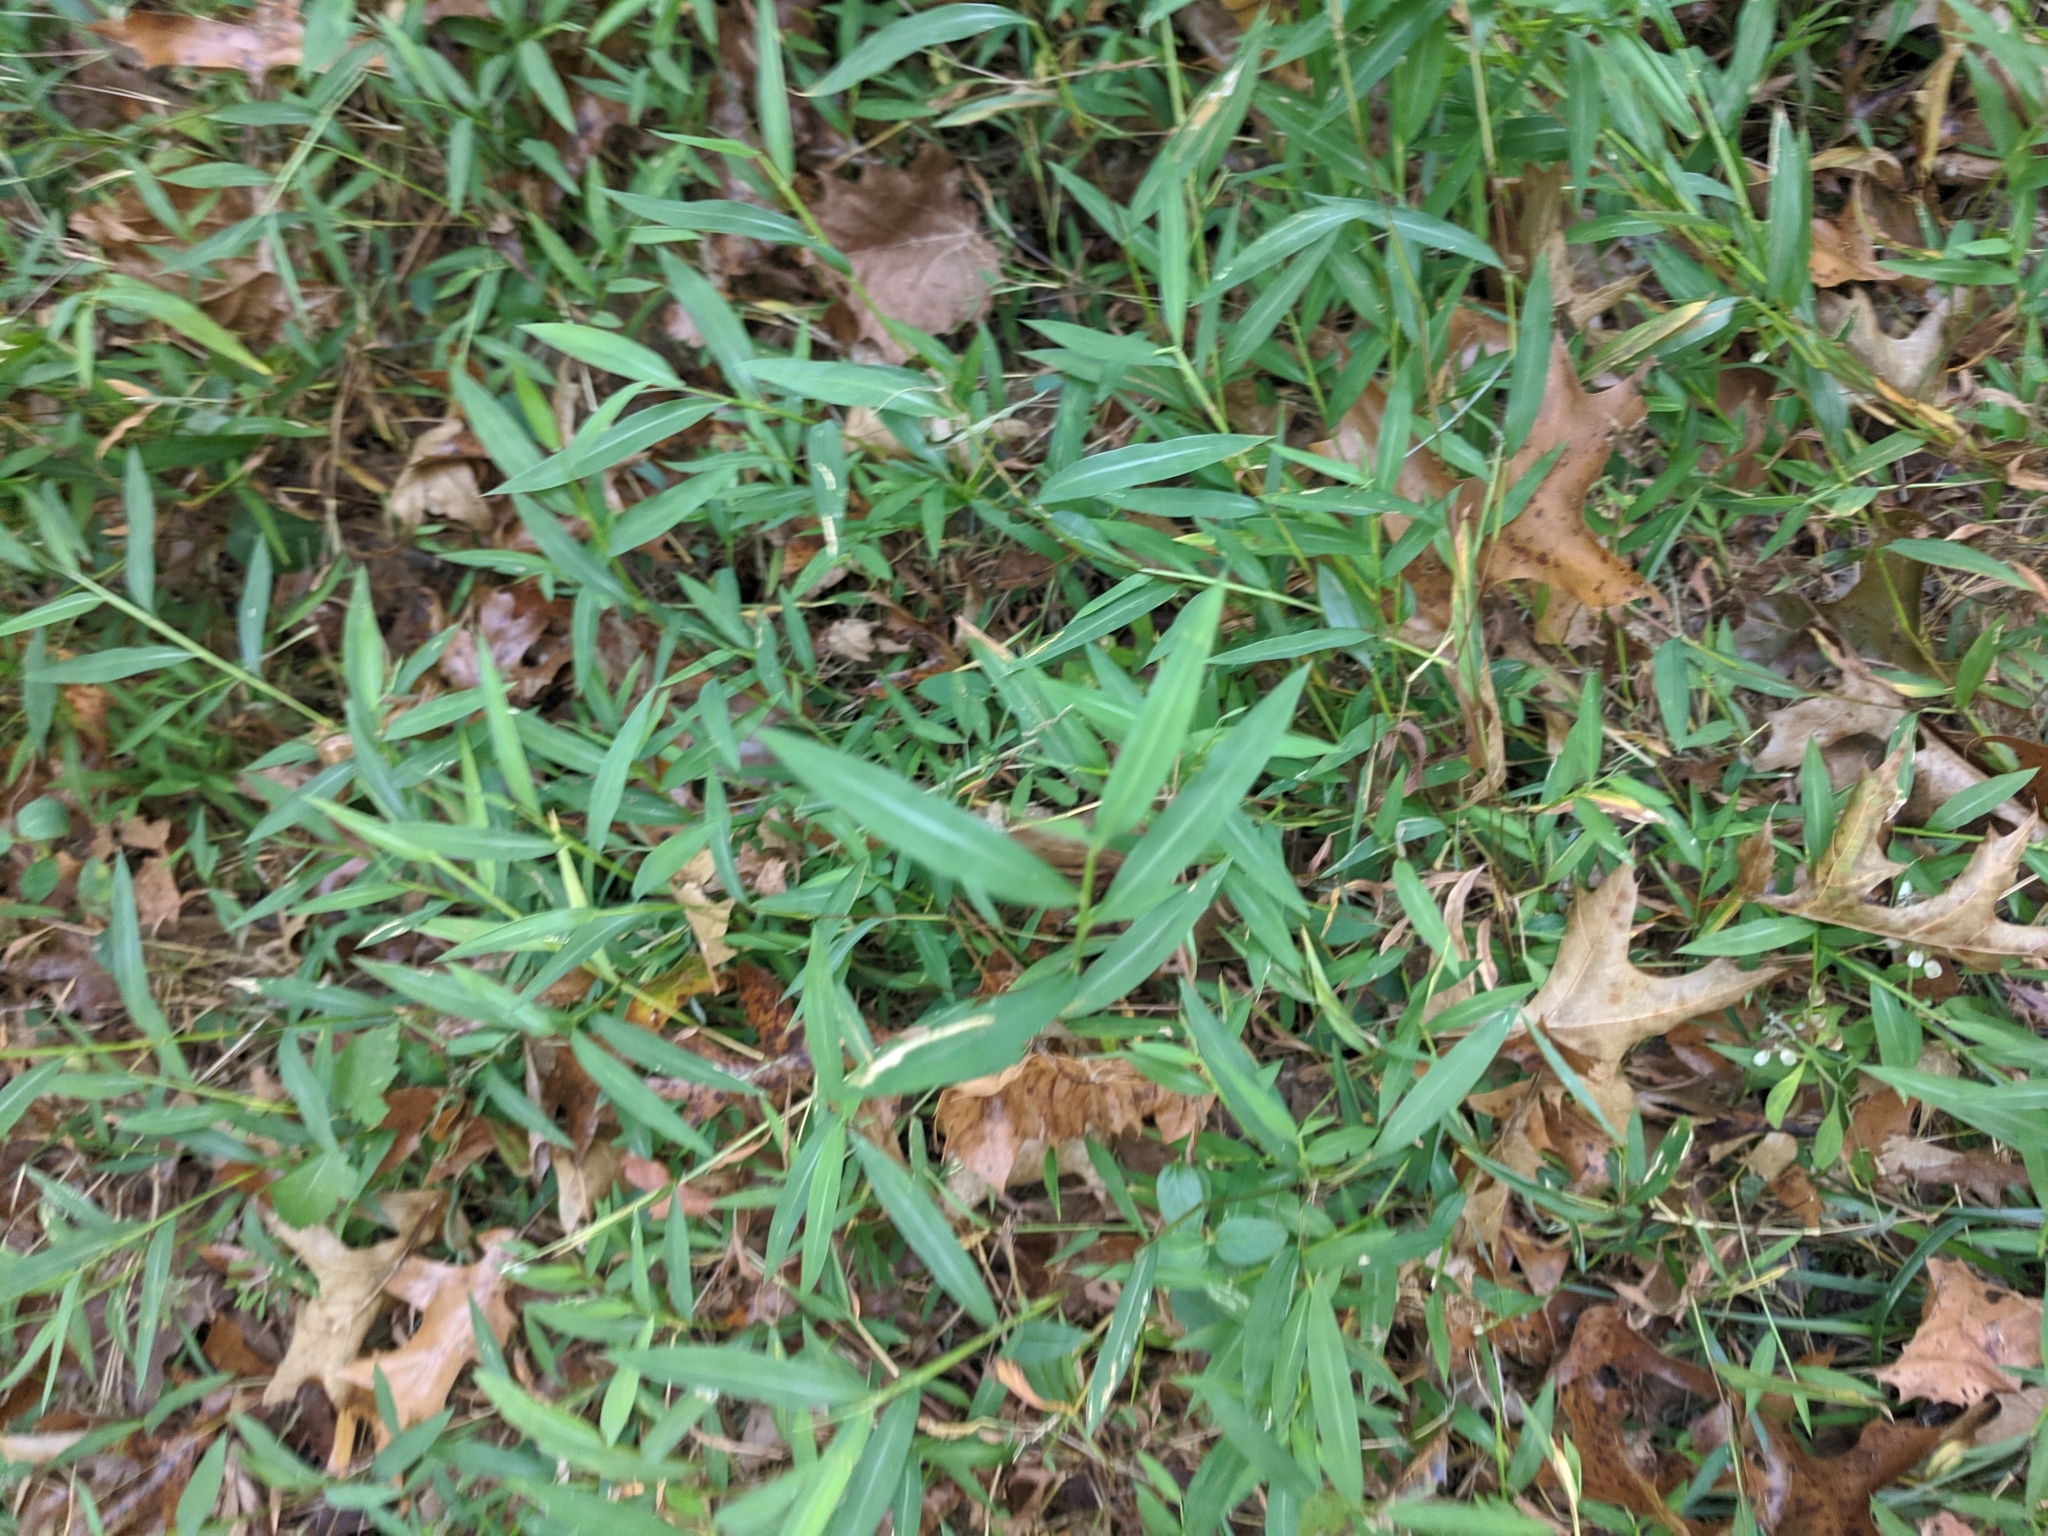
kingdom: Plantae
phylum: Tracheophyta
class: Liliopsida
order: Poales
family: Poaceae
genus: Microstegium
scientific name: Microstegium vimineum
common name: Japanese stiltgrass
